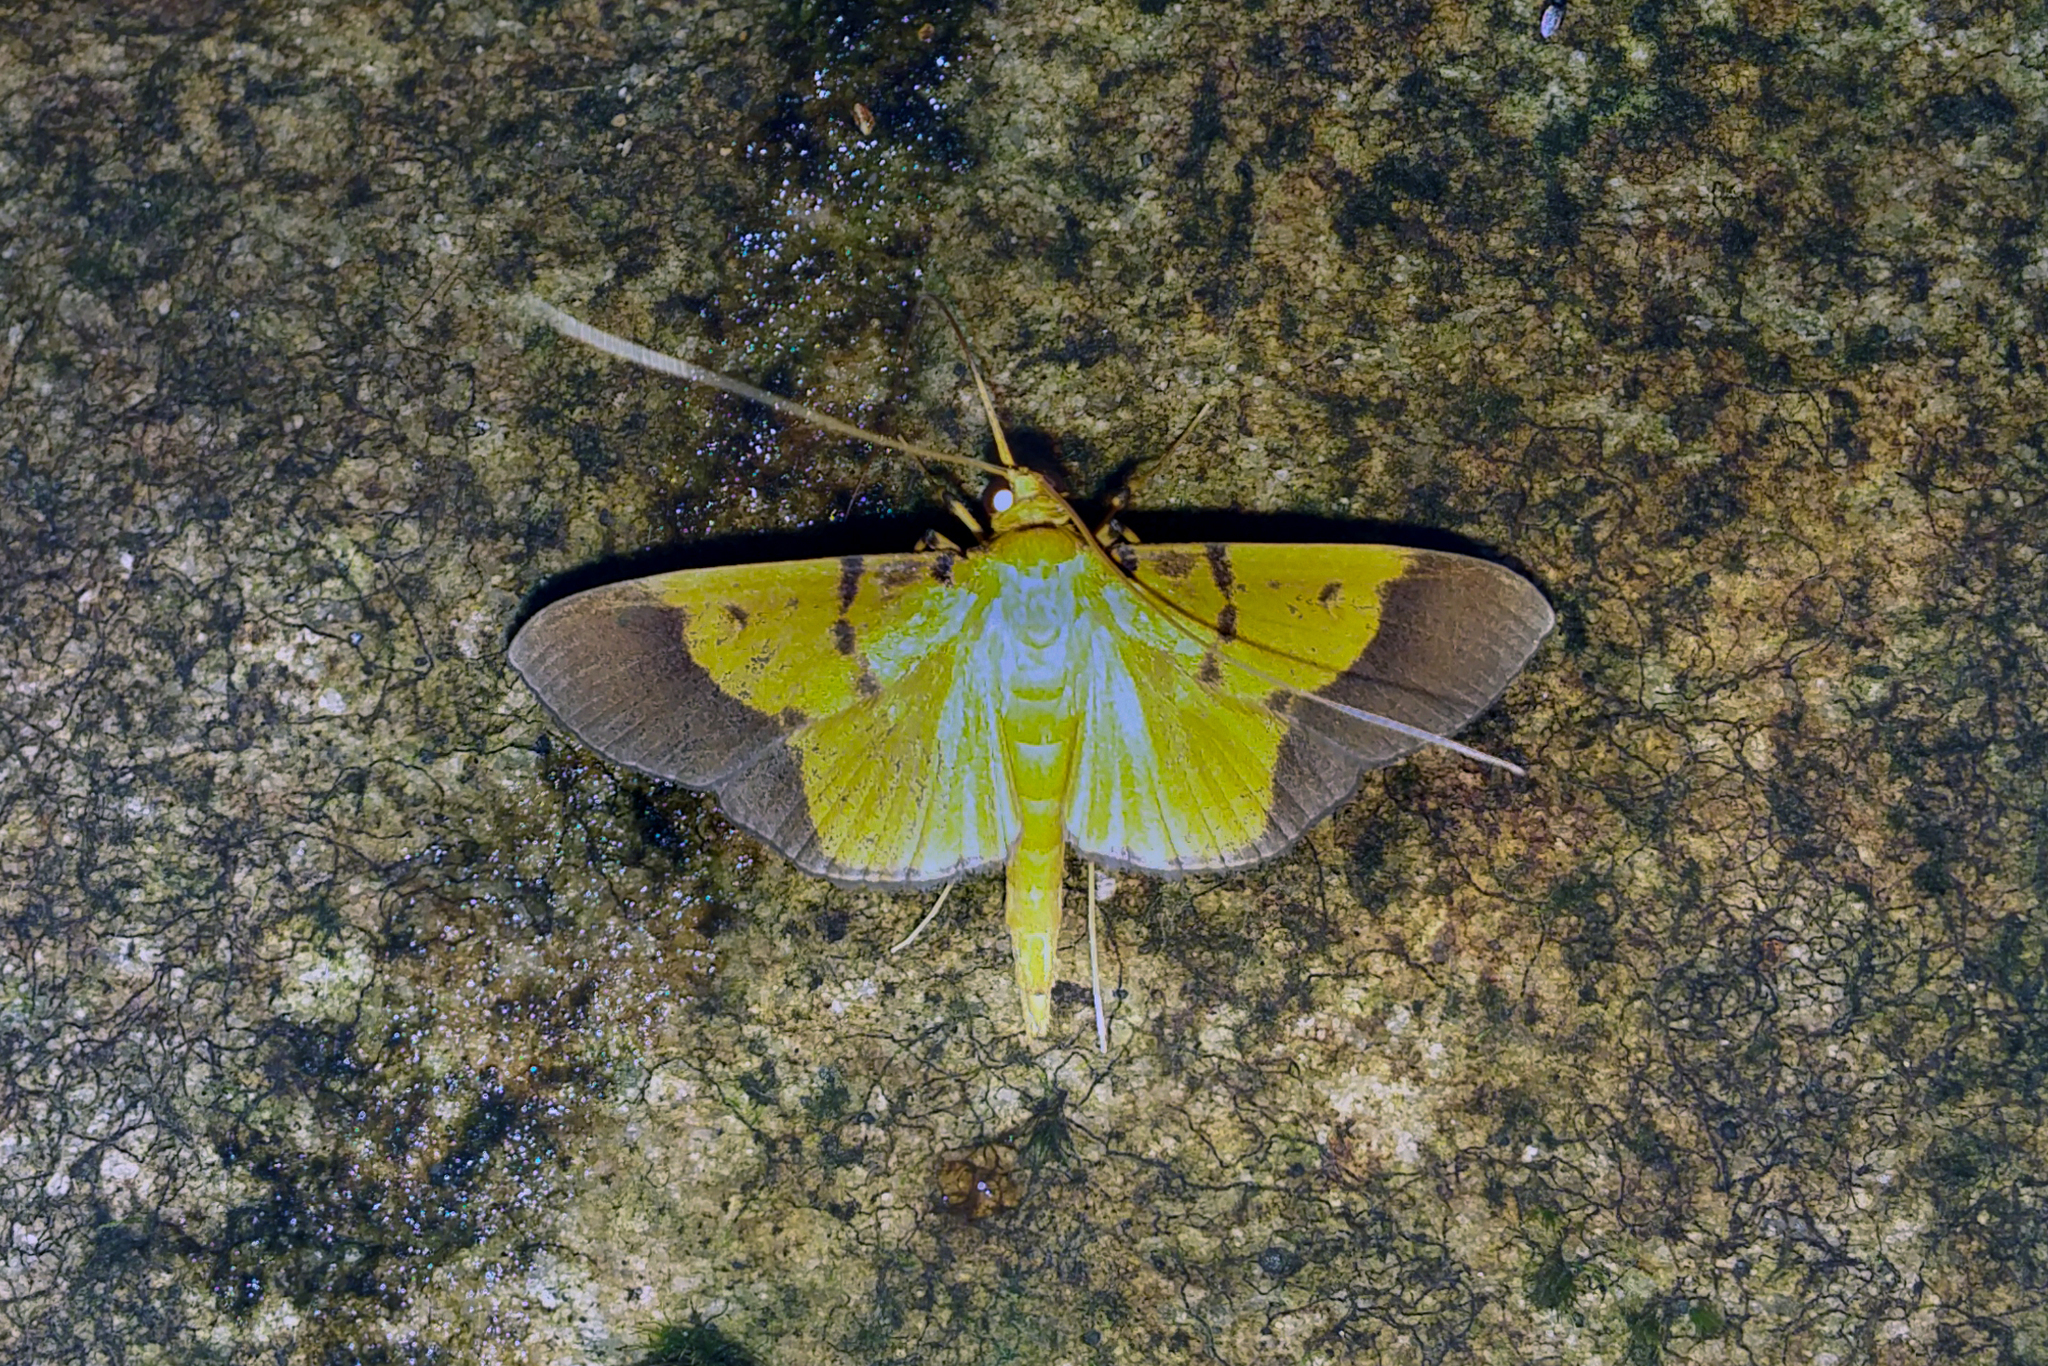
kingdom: Animalia
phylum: Arthropoda
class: Insecta
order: Lepidoptera
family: Crambidae
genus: Glyphodes
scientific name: Glyphodes malgassalis
